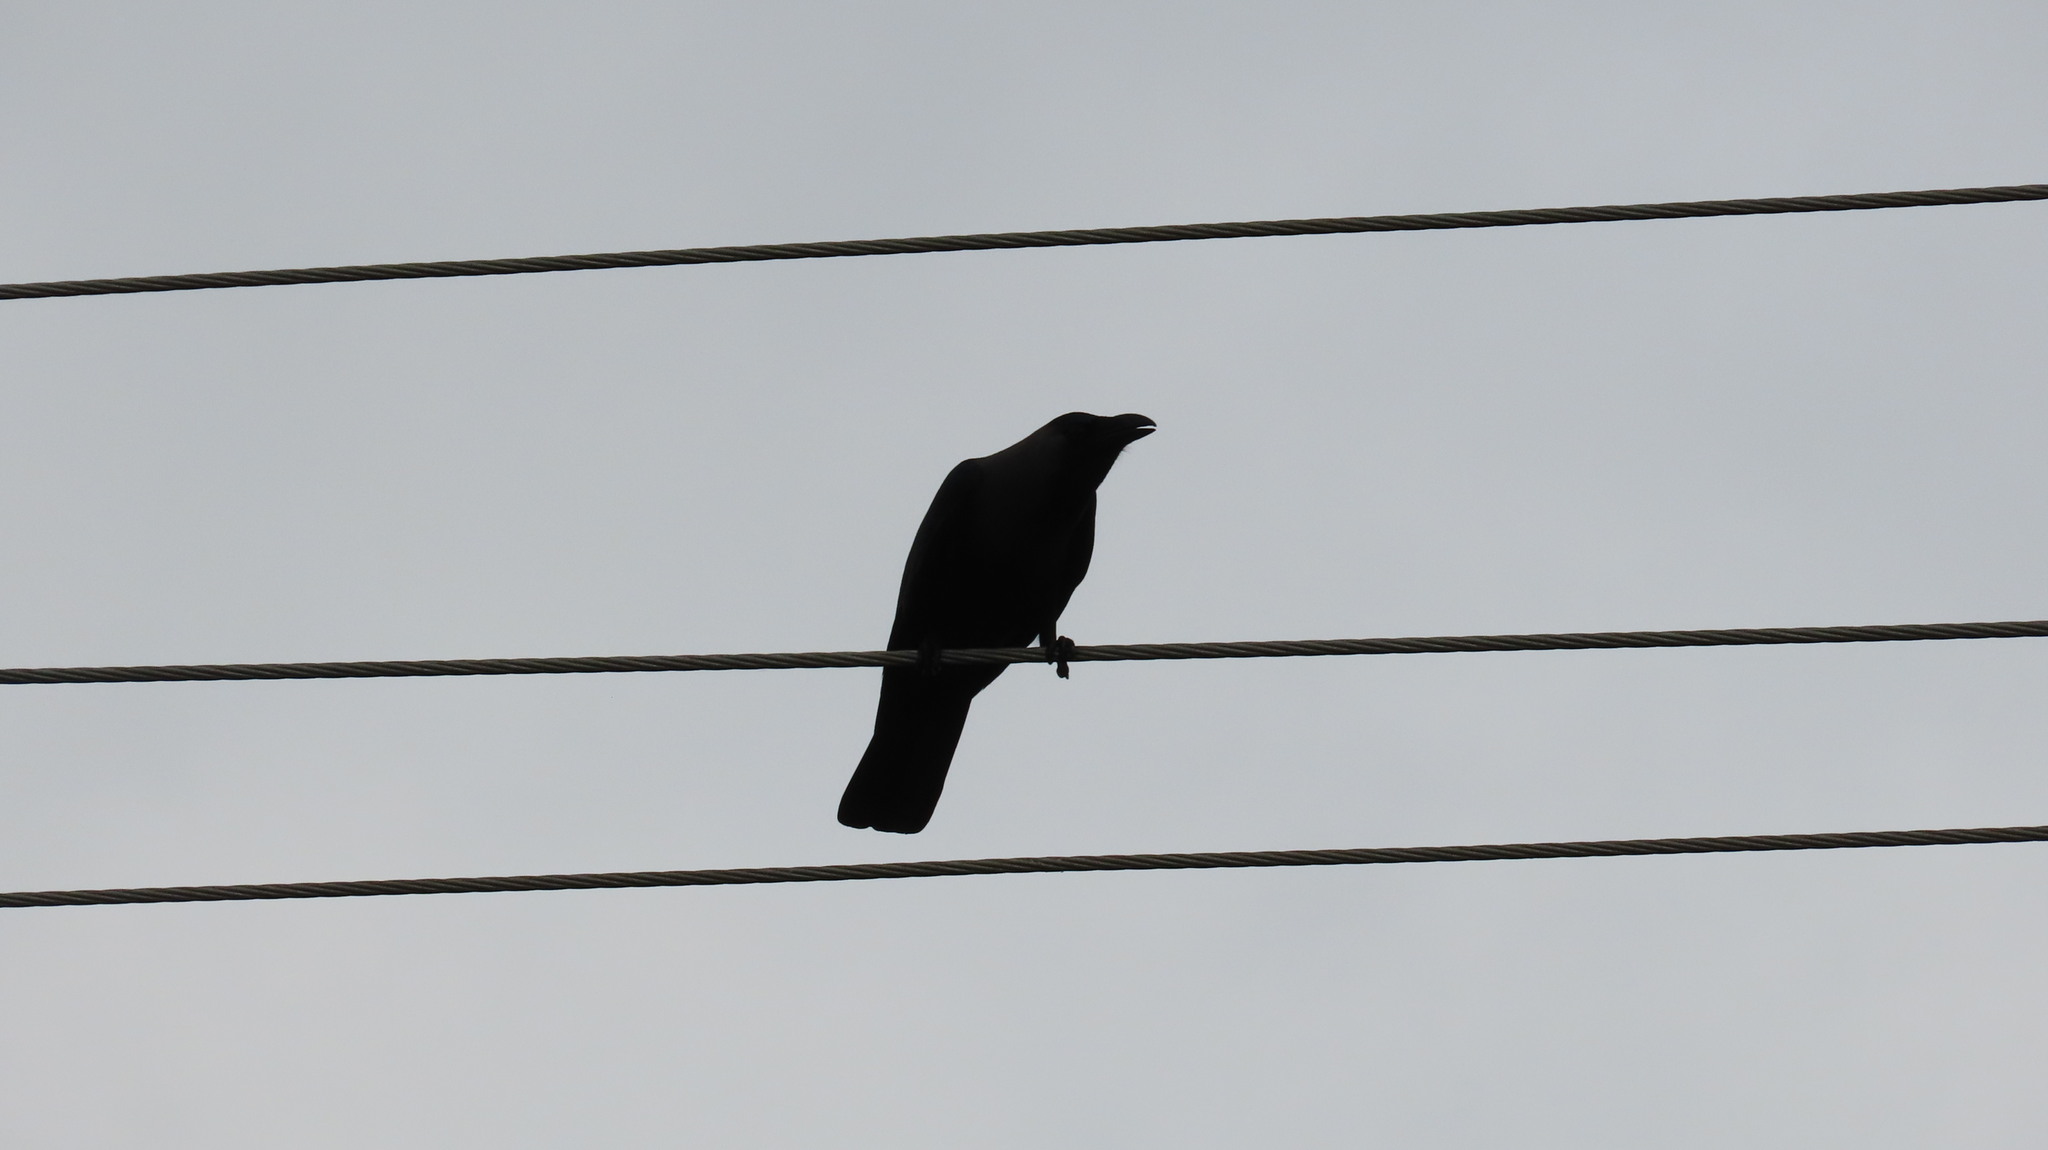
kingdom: Animalia
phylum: Chordata
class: Aves
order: Passeriformes
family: Corvidae
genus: Corvus
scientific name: Corvus splendens
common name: House crow
